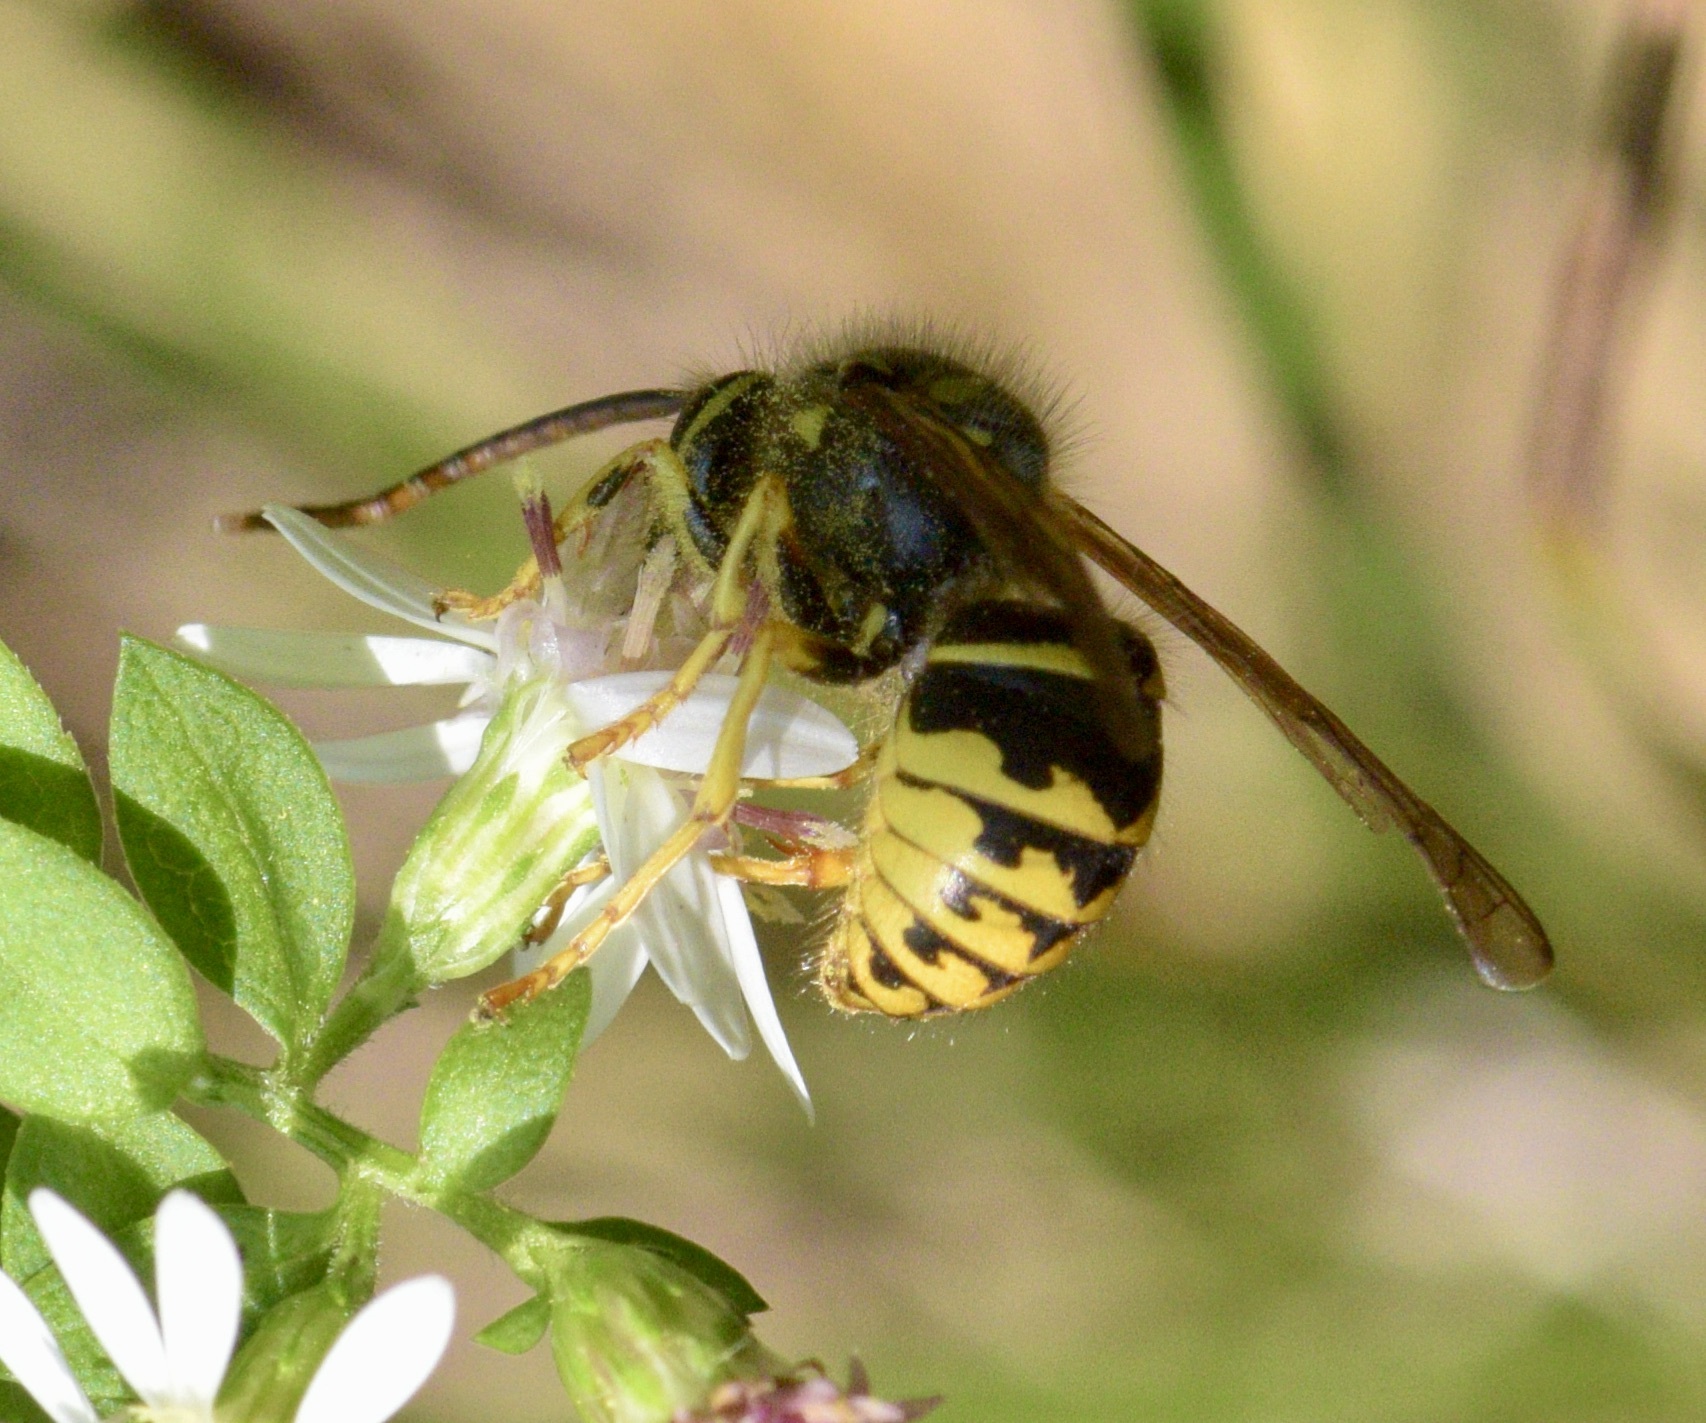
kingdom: Animalia
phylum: Arthropoda
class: Insecta
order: Hymenoptera
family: Vespidae
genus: Dolichovespula
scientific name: Dolichovespula arenaria
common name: Aerial yellowjacket
